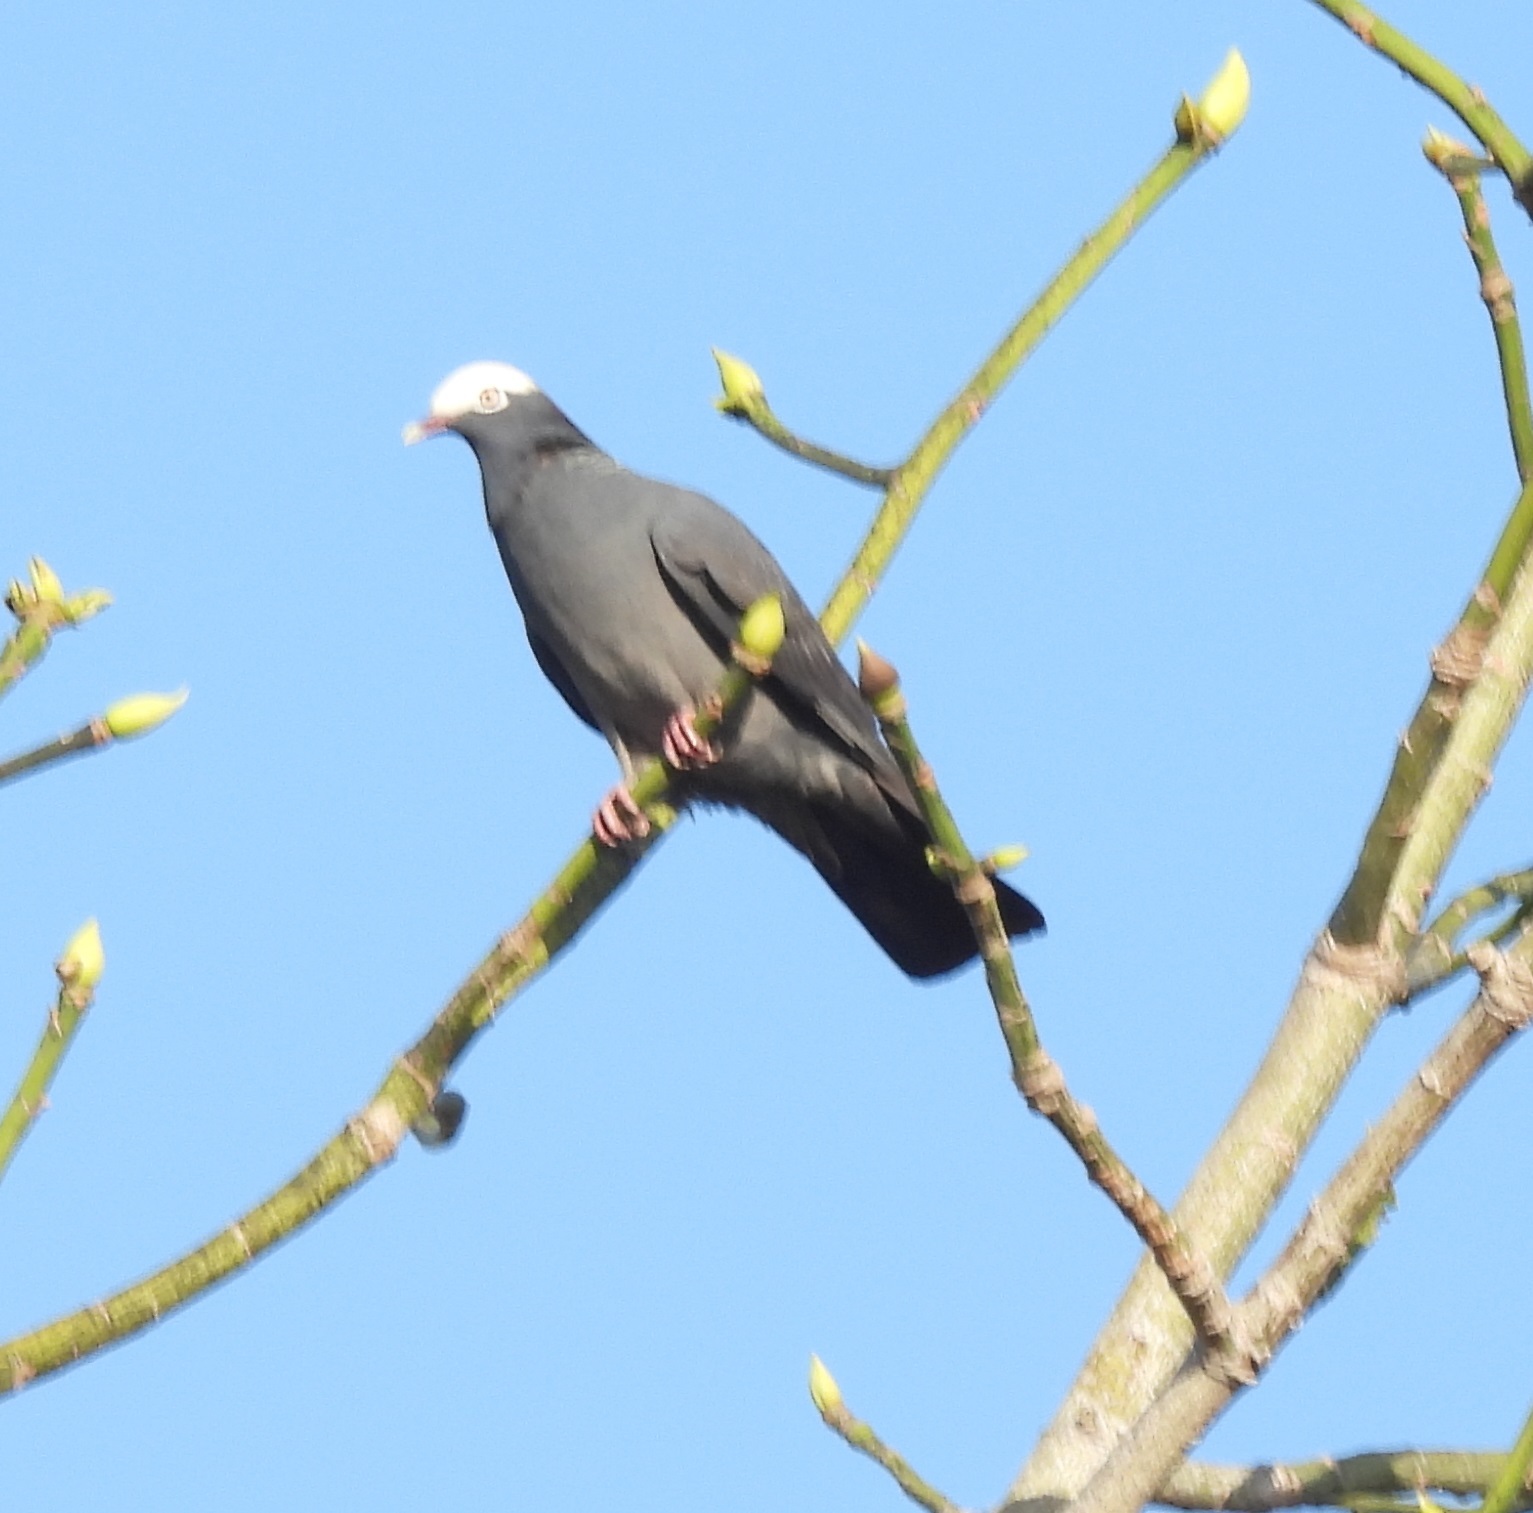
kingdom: Animalia
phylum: Chordata
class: Aves
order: Columbiformes
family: Columbidae
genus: Patagioenas
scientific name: Patagioenas leucocephala
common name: White-crowned pigeon
